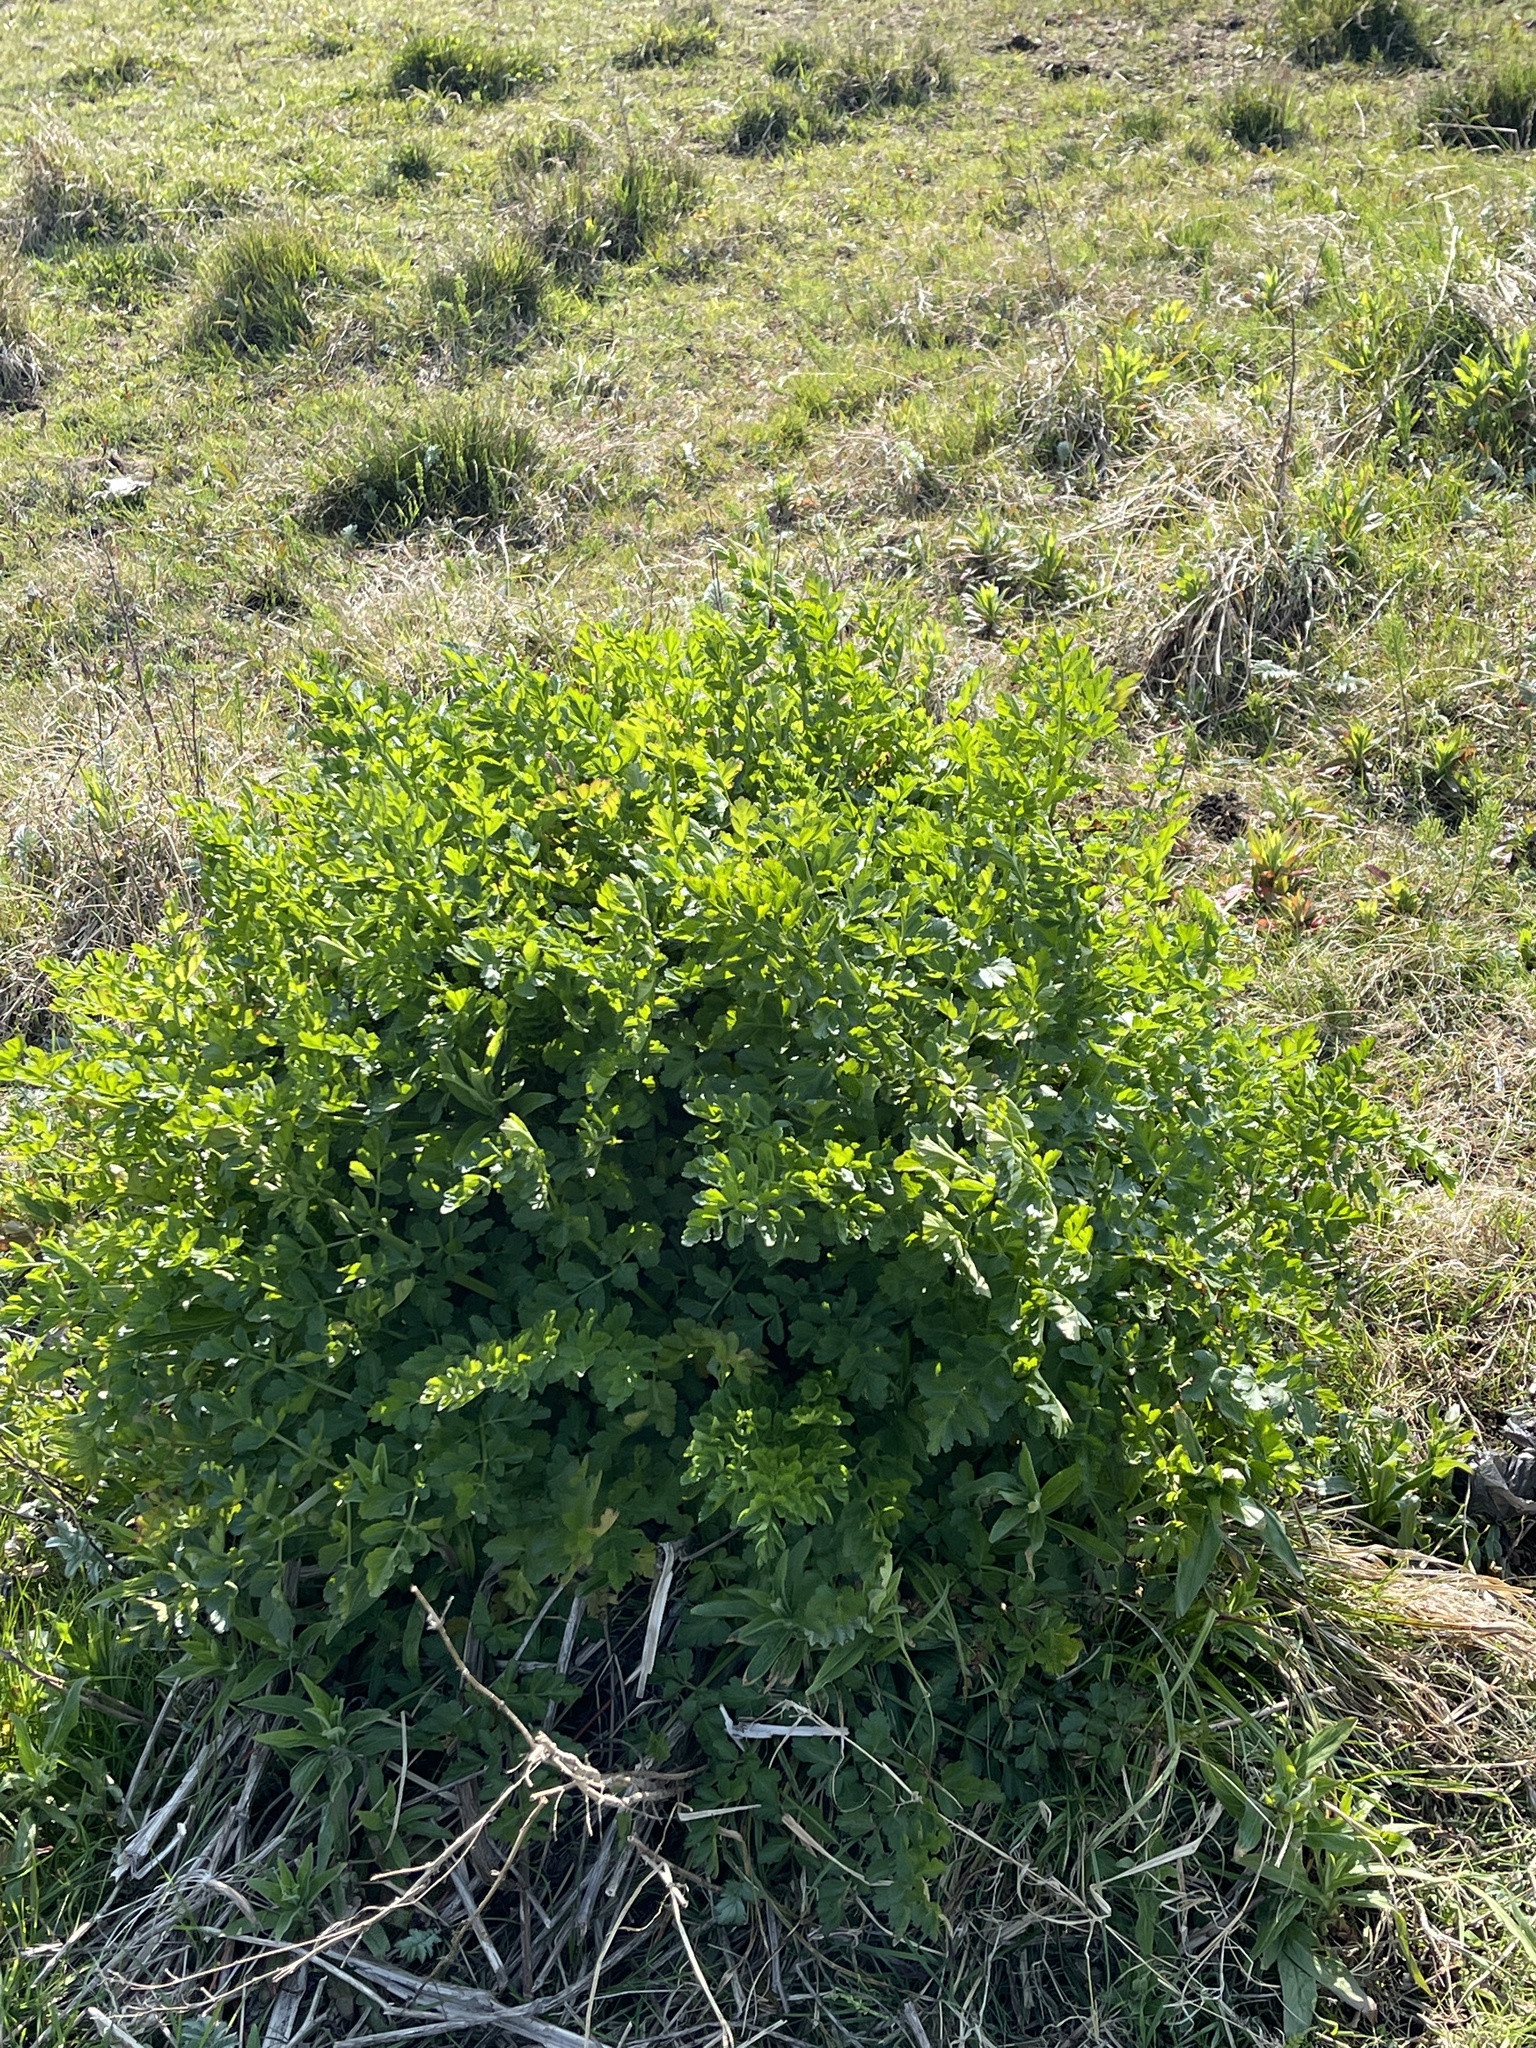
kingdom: Plantae
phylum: Tracheophyta
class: Magnoliopsida
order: Apiales
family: Apiaceae
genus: Oenanthe
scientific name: Oenanthe crocata
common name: Hemlock water-dropwort
